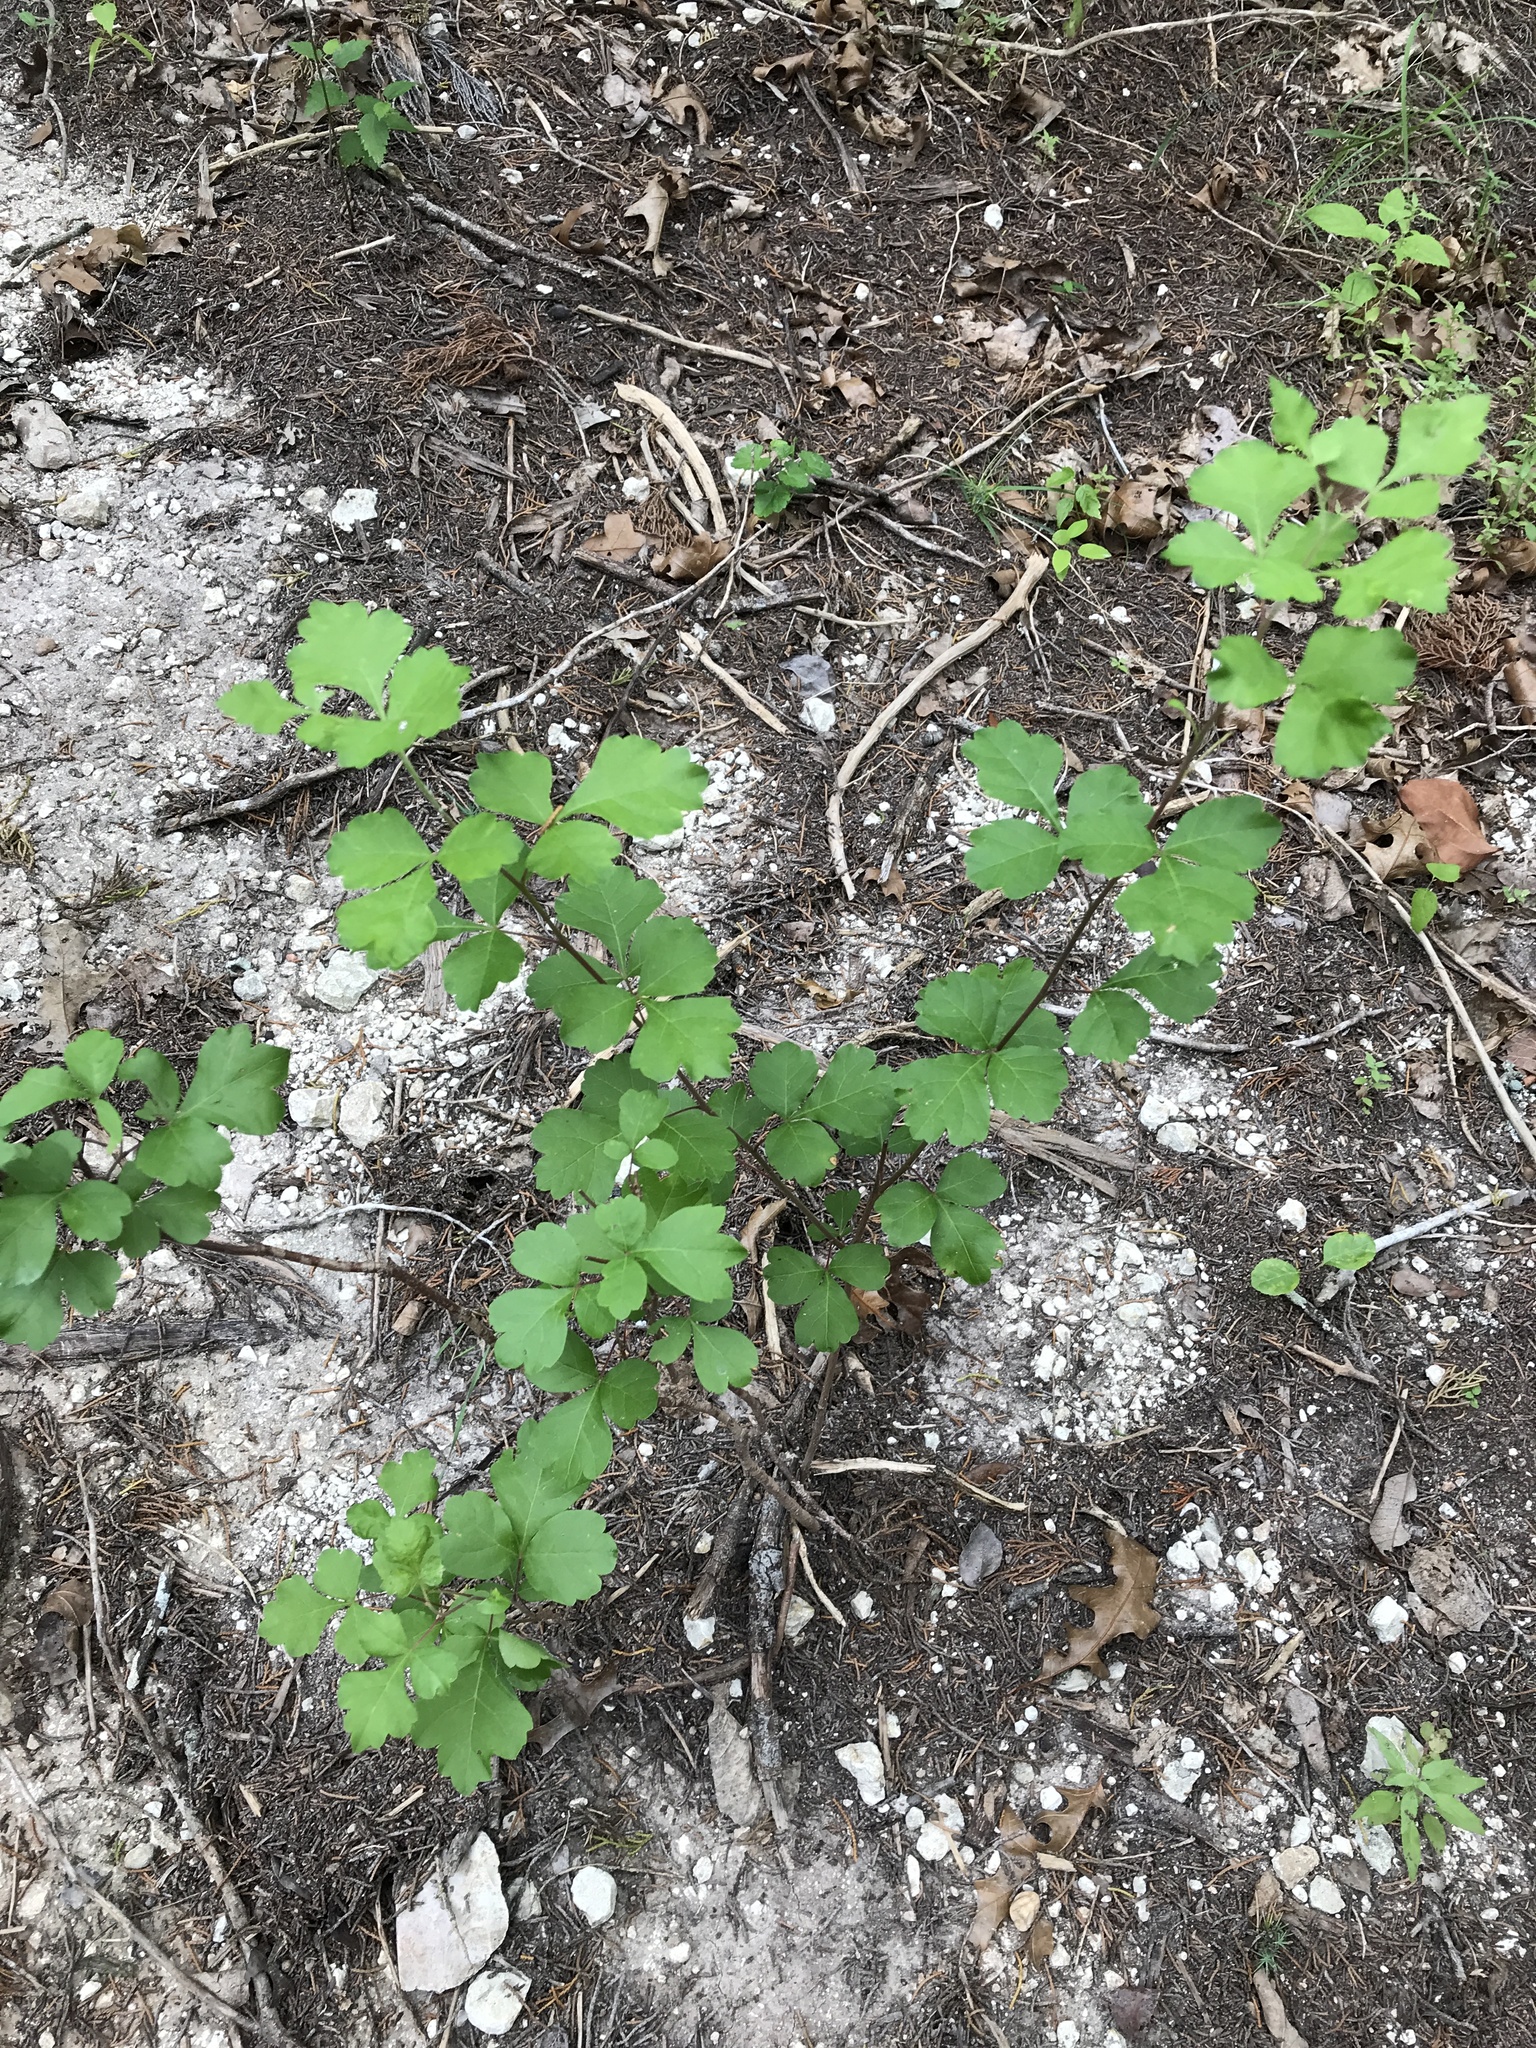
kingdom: Plantae
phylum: Tracheophyta
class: Magnoliopsida
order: Sapindales
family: Anacardiaceae
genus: Rhus
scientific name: Rhus aromatica
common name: Aromatic sumac
